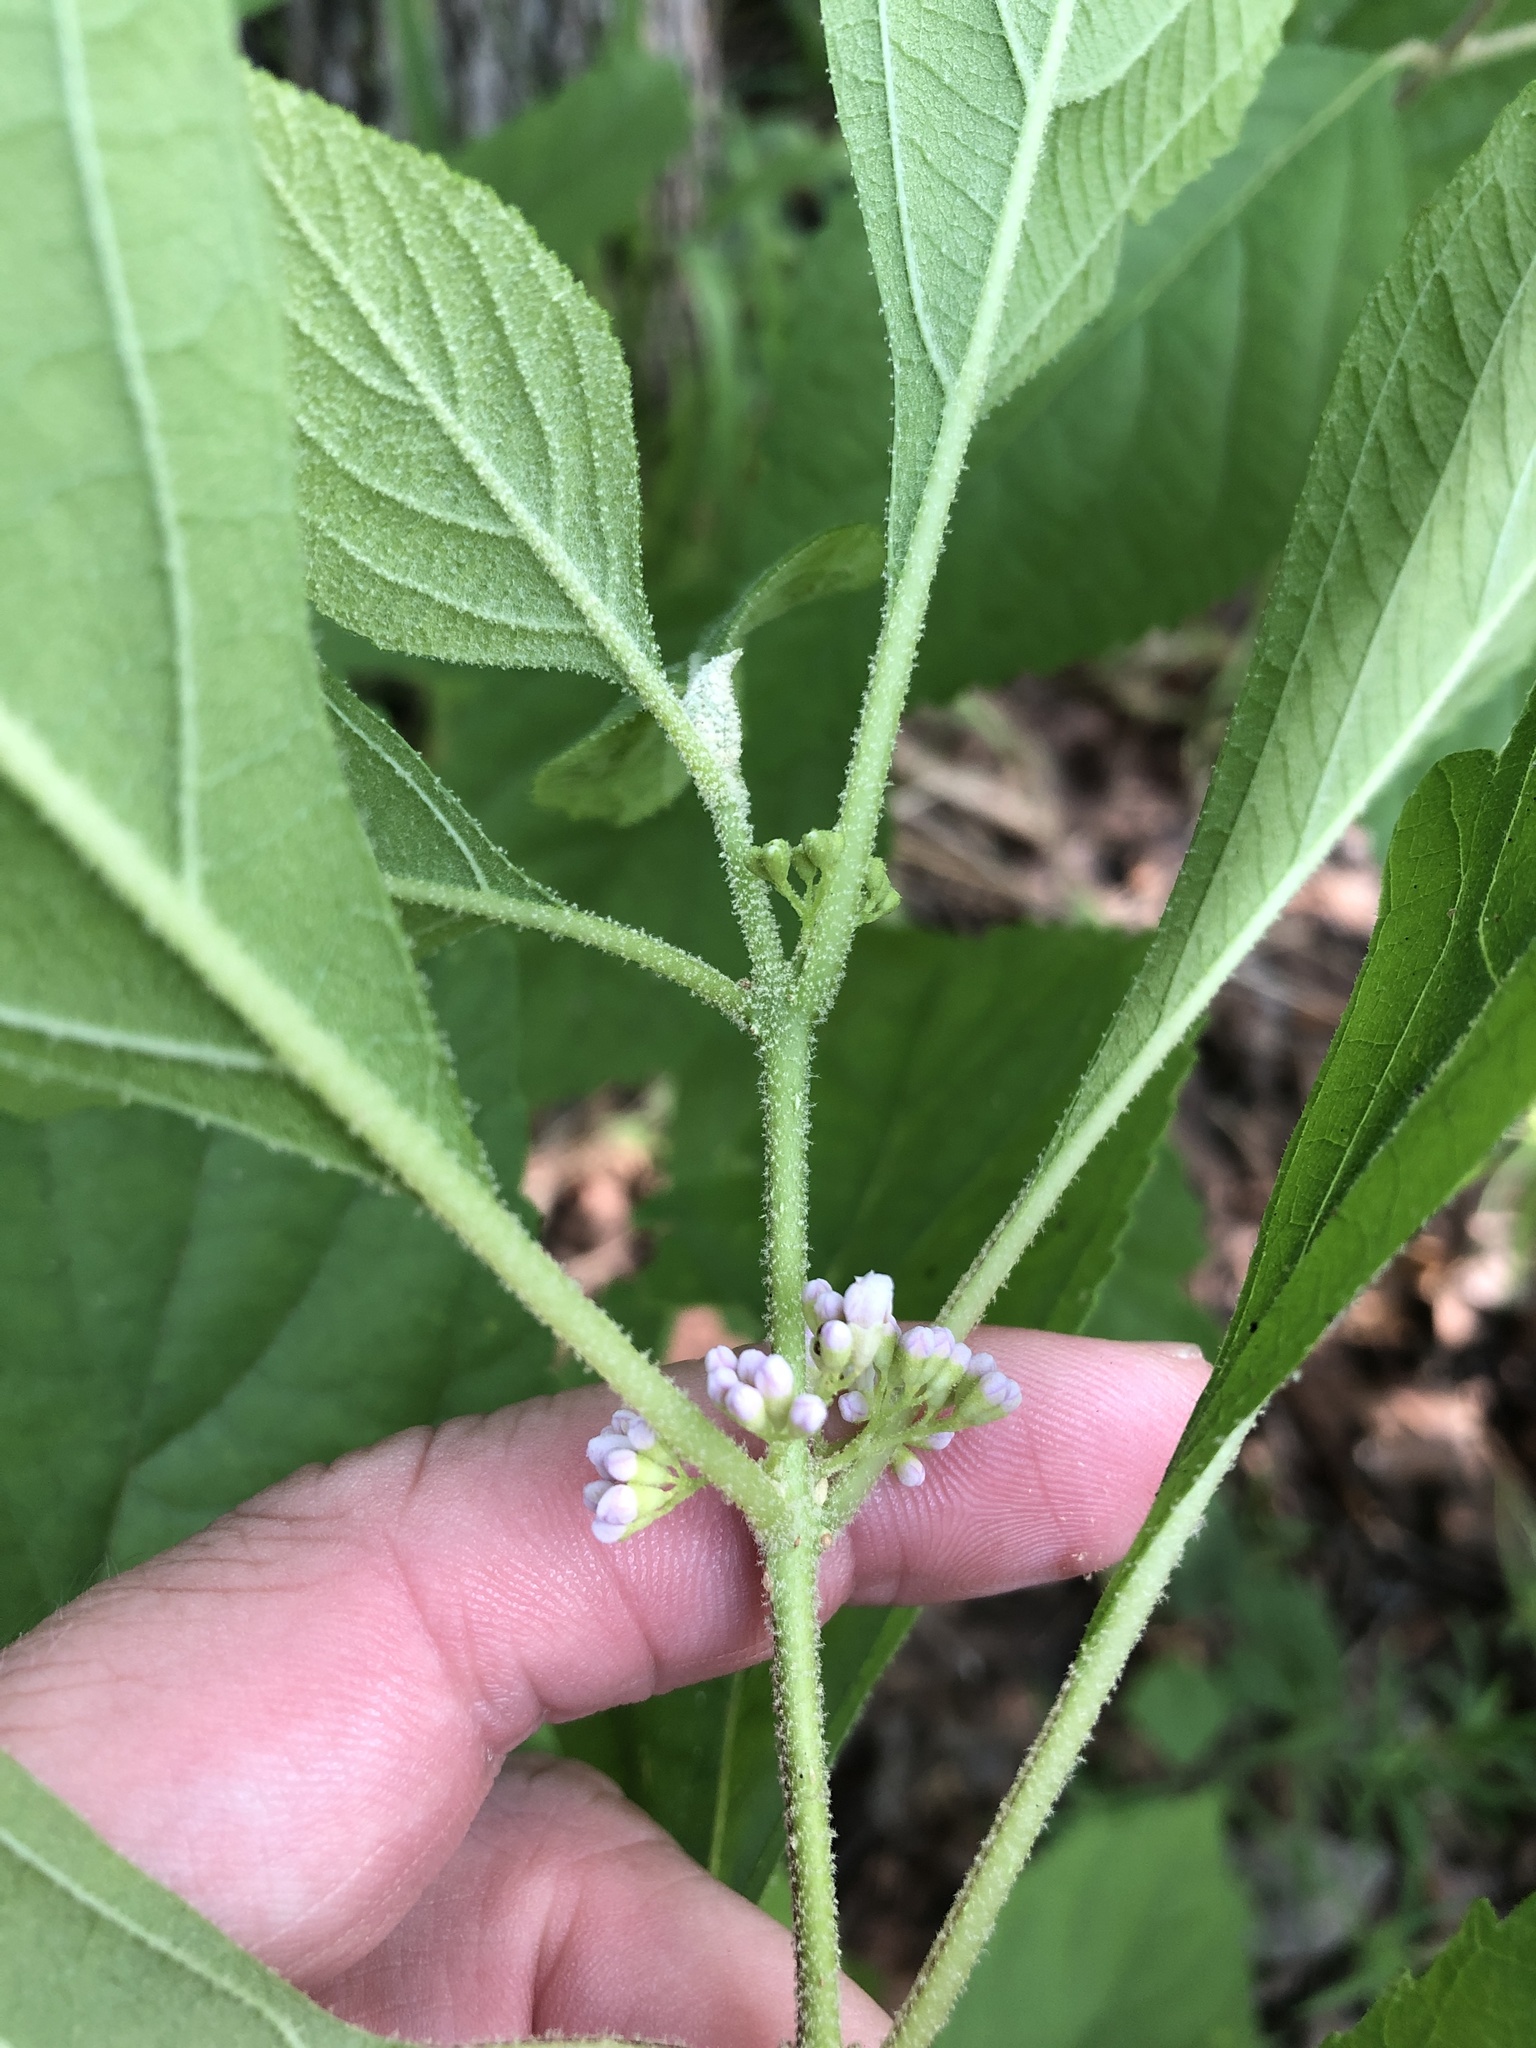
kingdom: Plantae
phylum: Tracheophyta
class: Magnoliopsida
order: Lamiales
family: Lamiaceae
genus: Callicarpa
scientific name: Callicarpa americana
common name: American beautyberry
